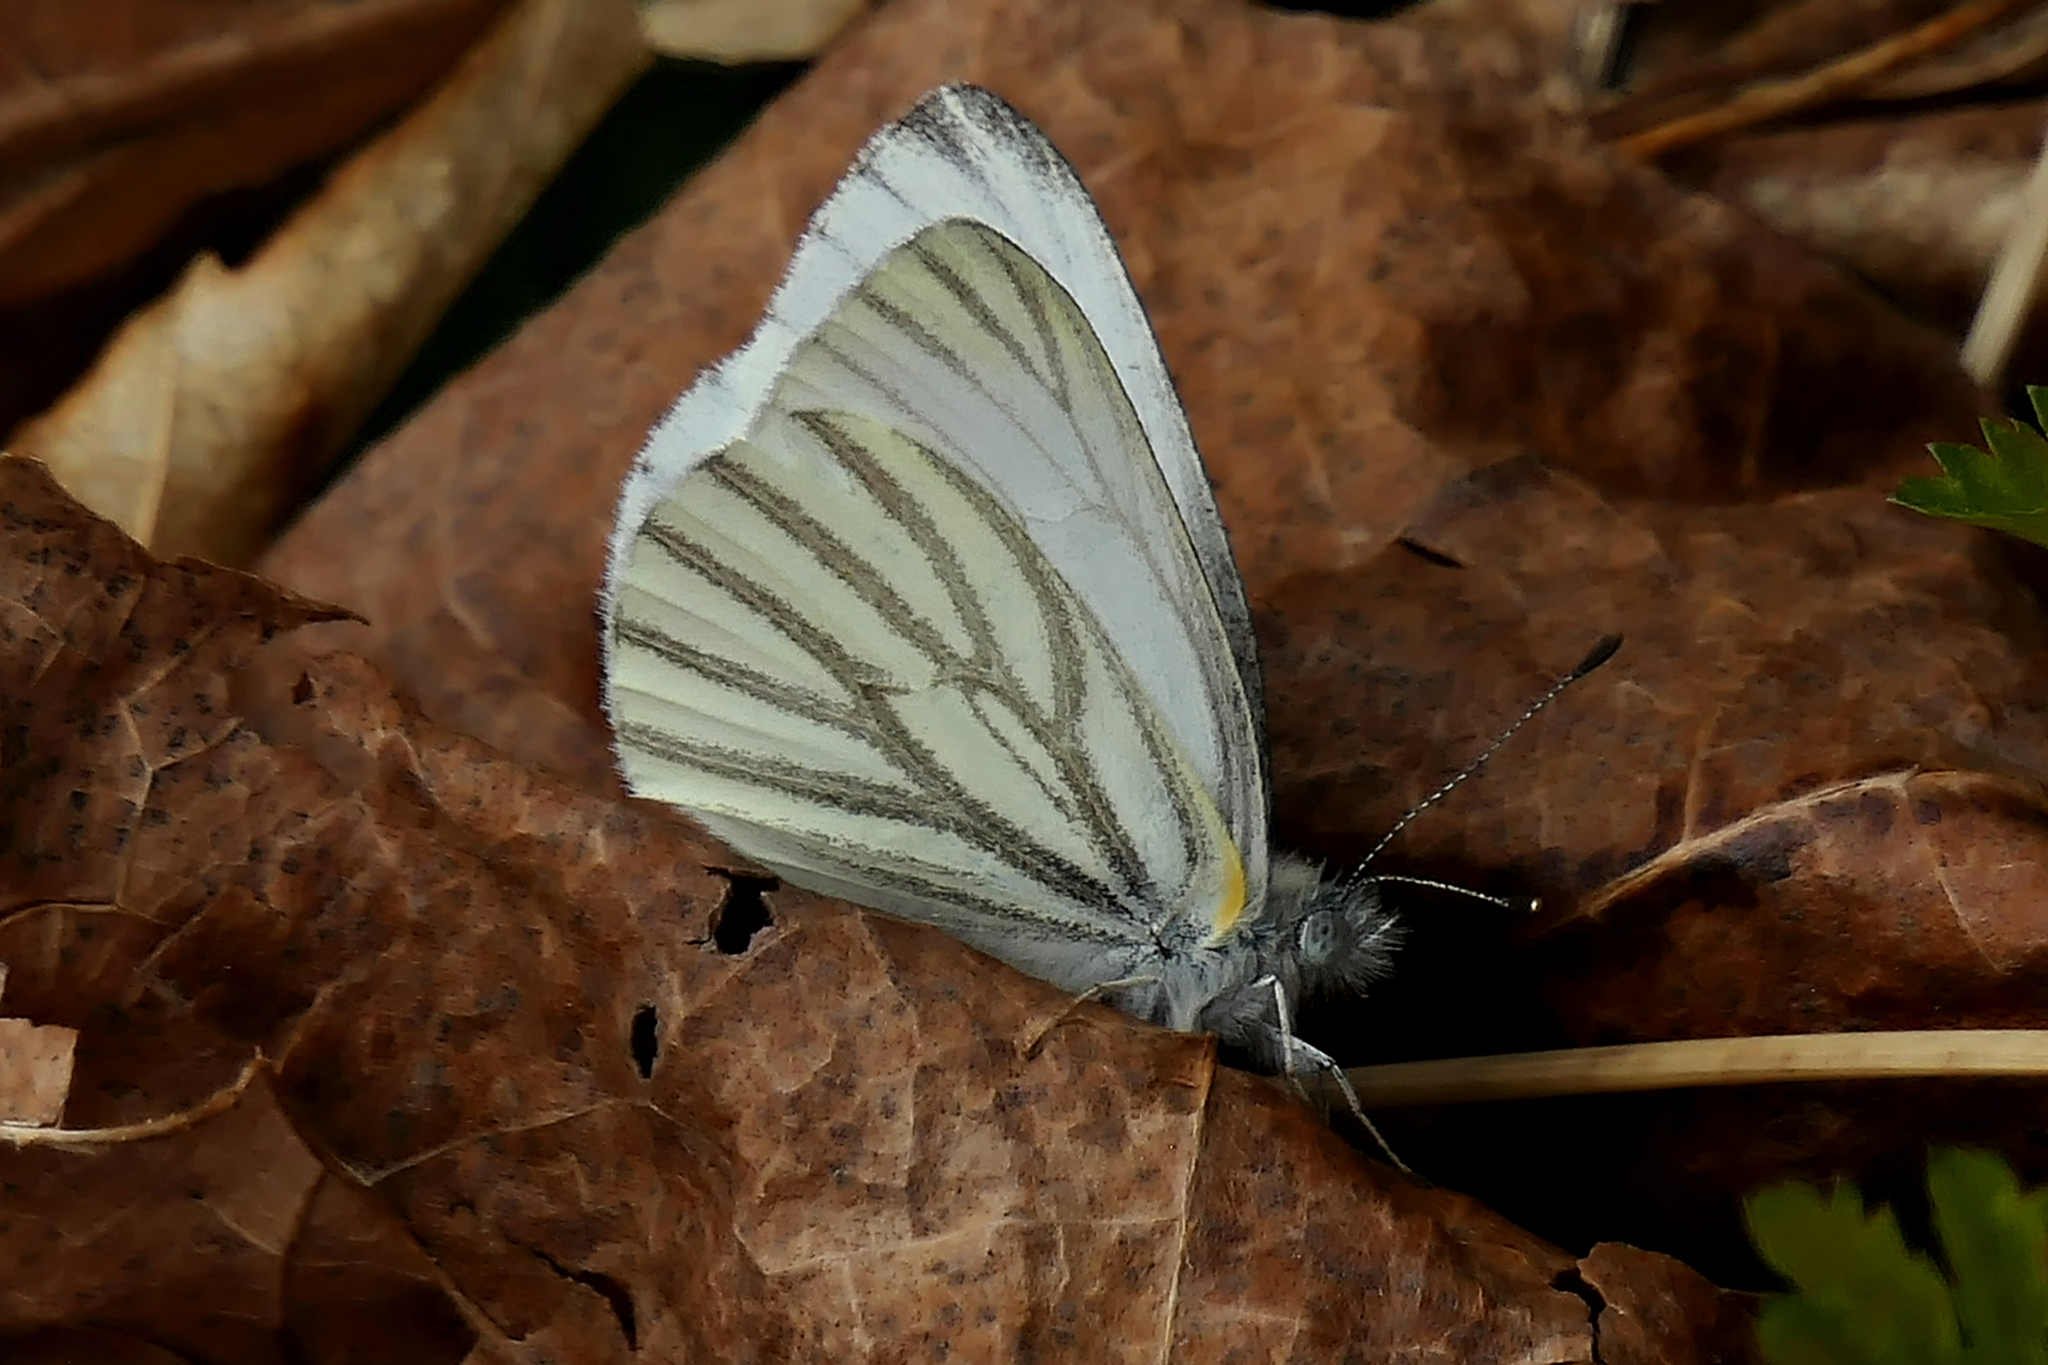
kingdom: Animalia
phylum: Arthropoda
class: Insecta
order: Lepidoptera
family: Pieridae
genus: Pieris
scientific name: Pieris oleracea
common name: Mustard white
